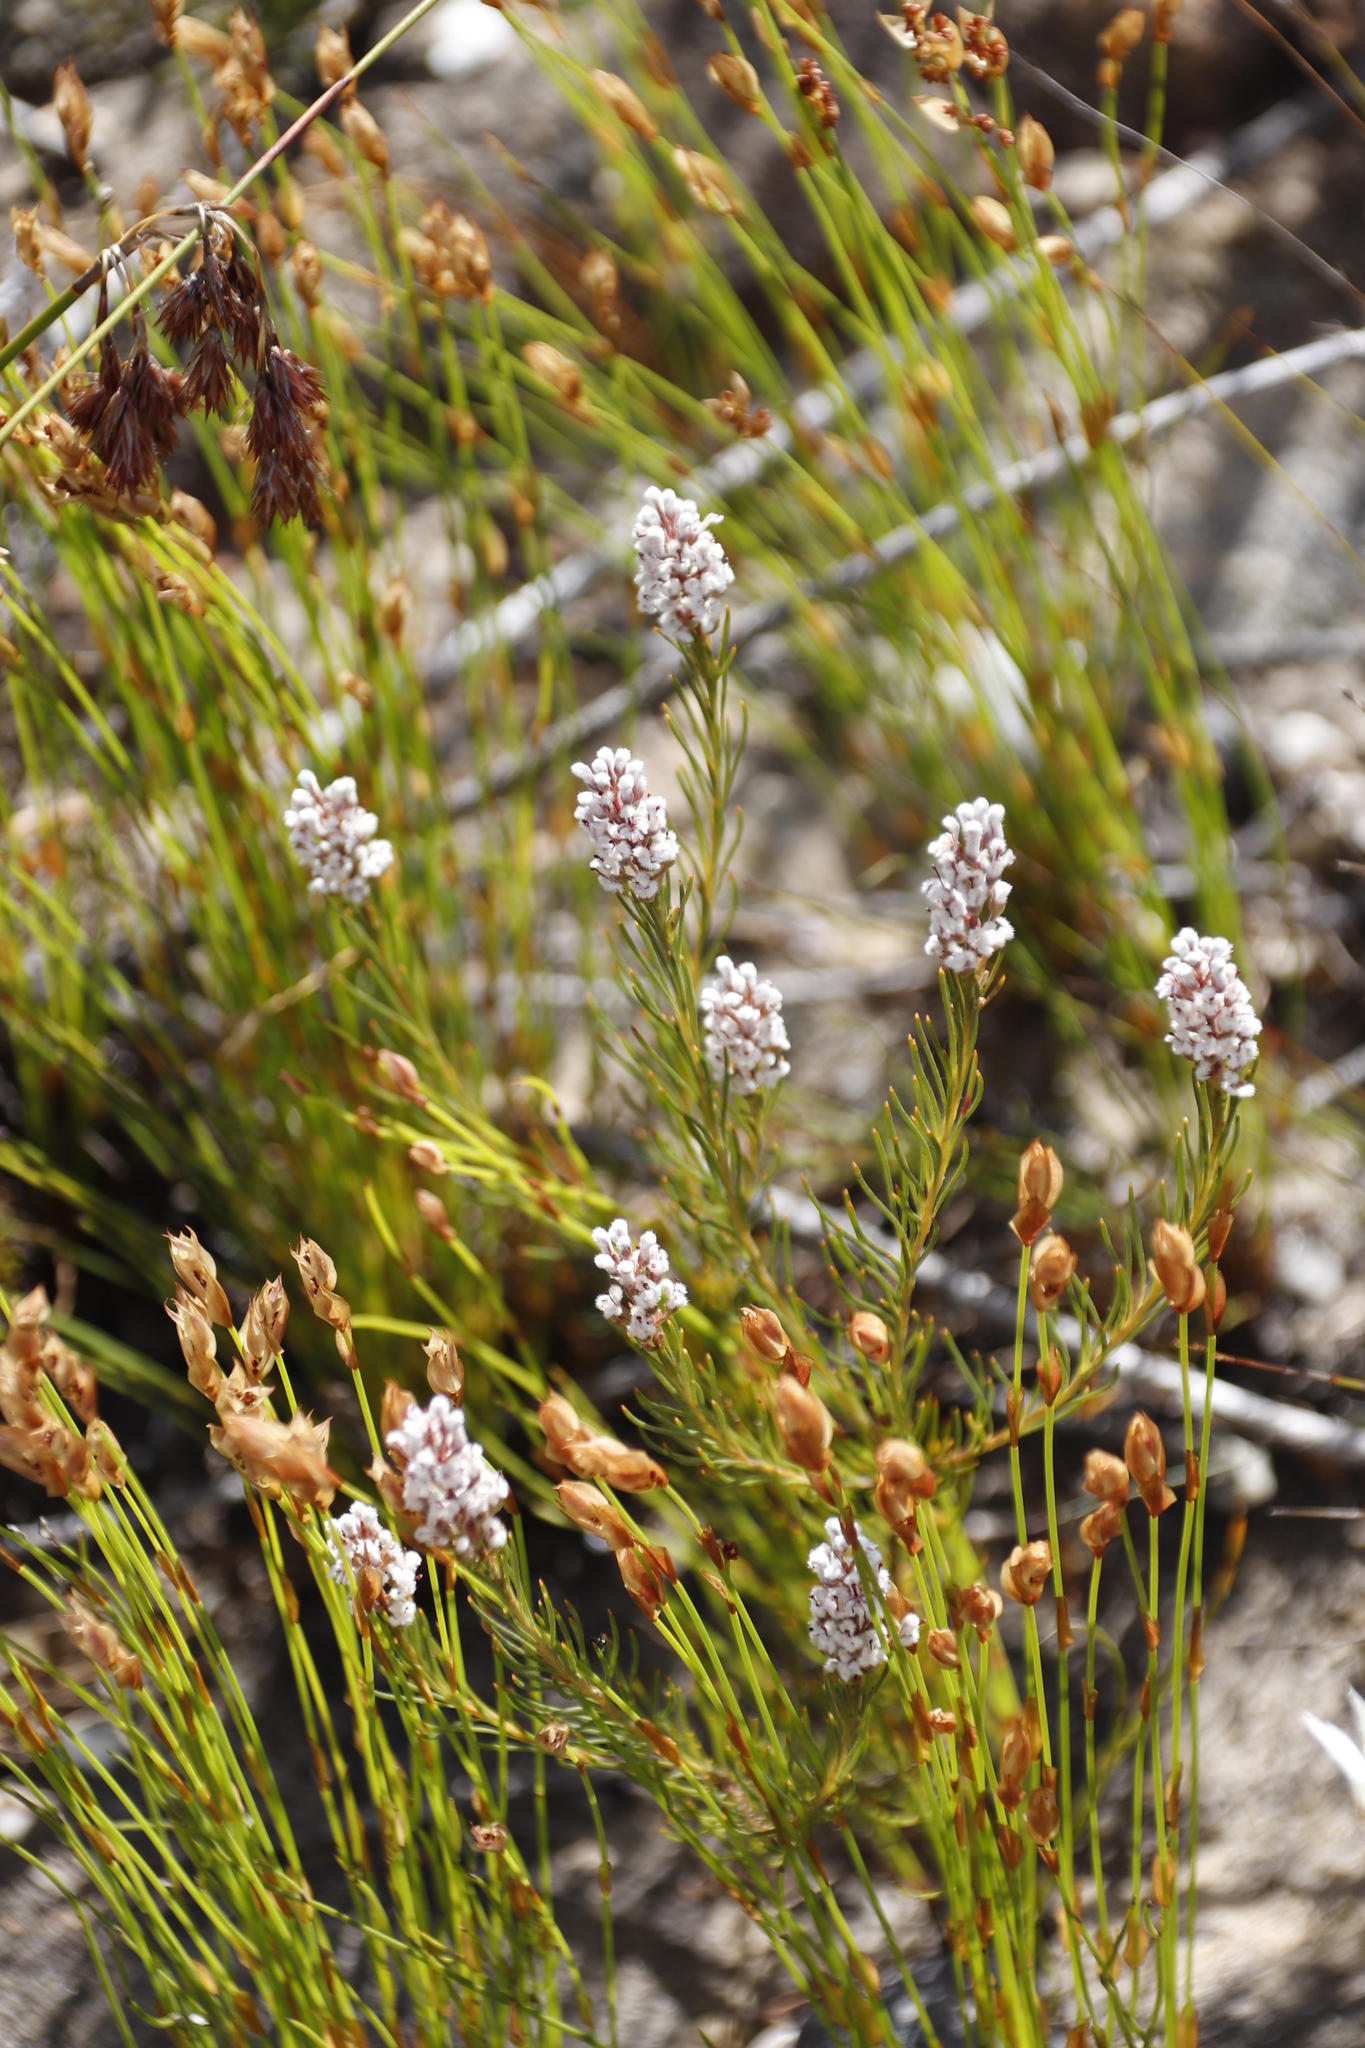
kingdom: Plantae
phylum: Tracheophyta
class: Magnoliopsida
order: Proteales
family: Proteaceae
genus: Spatalla
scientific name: Spatalla racemosa
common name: Lax-stalked spoon
